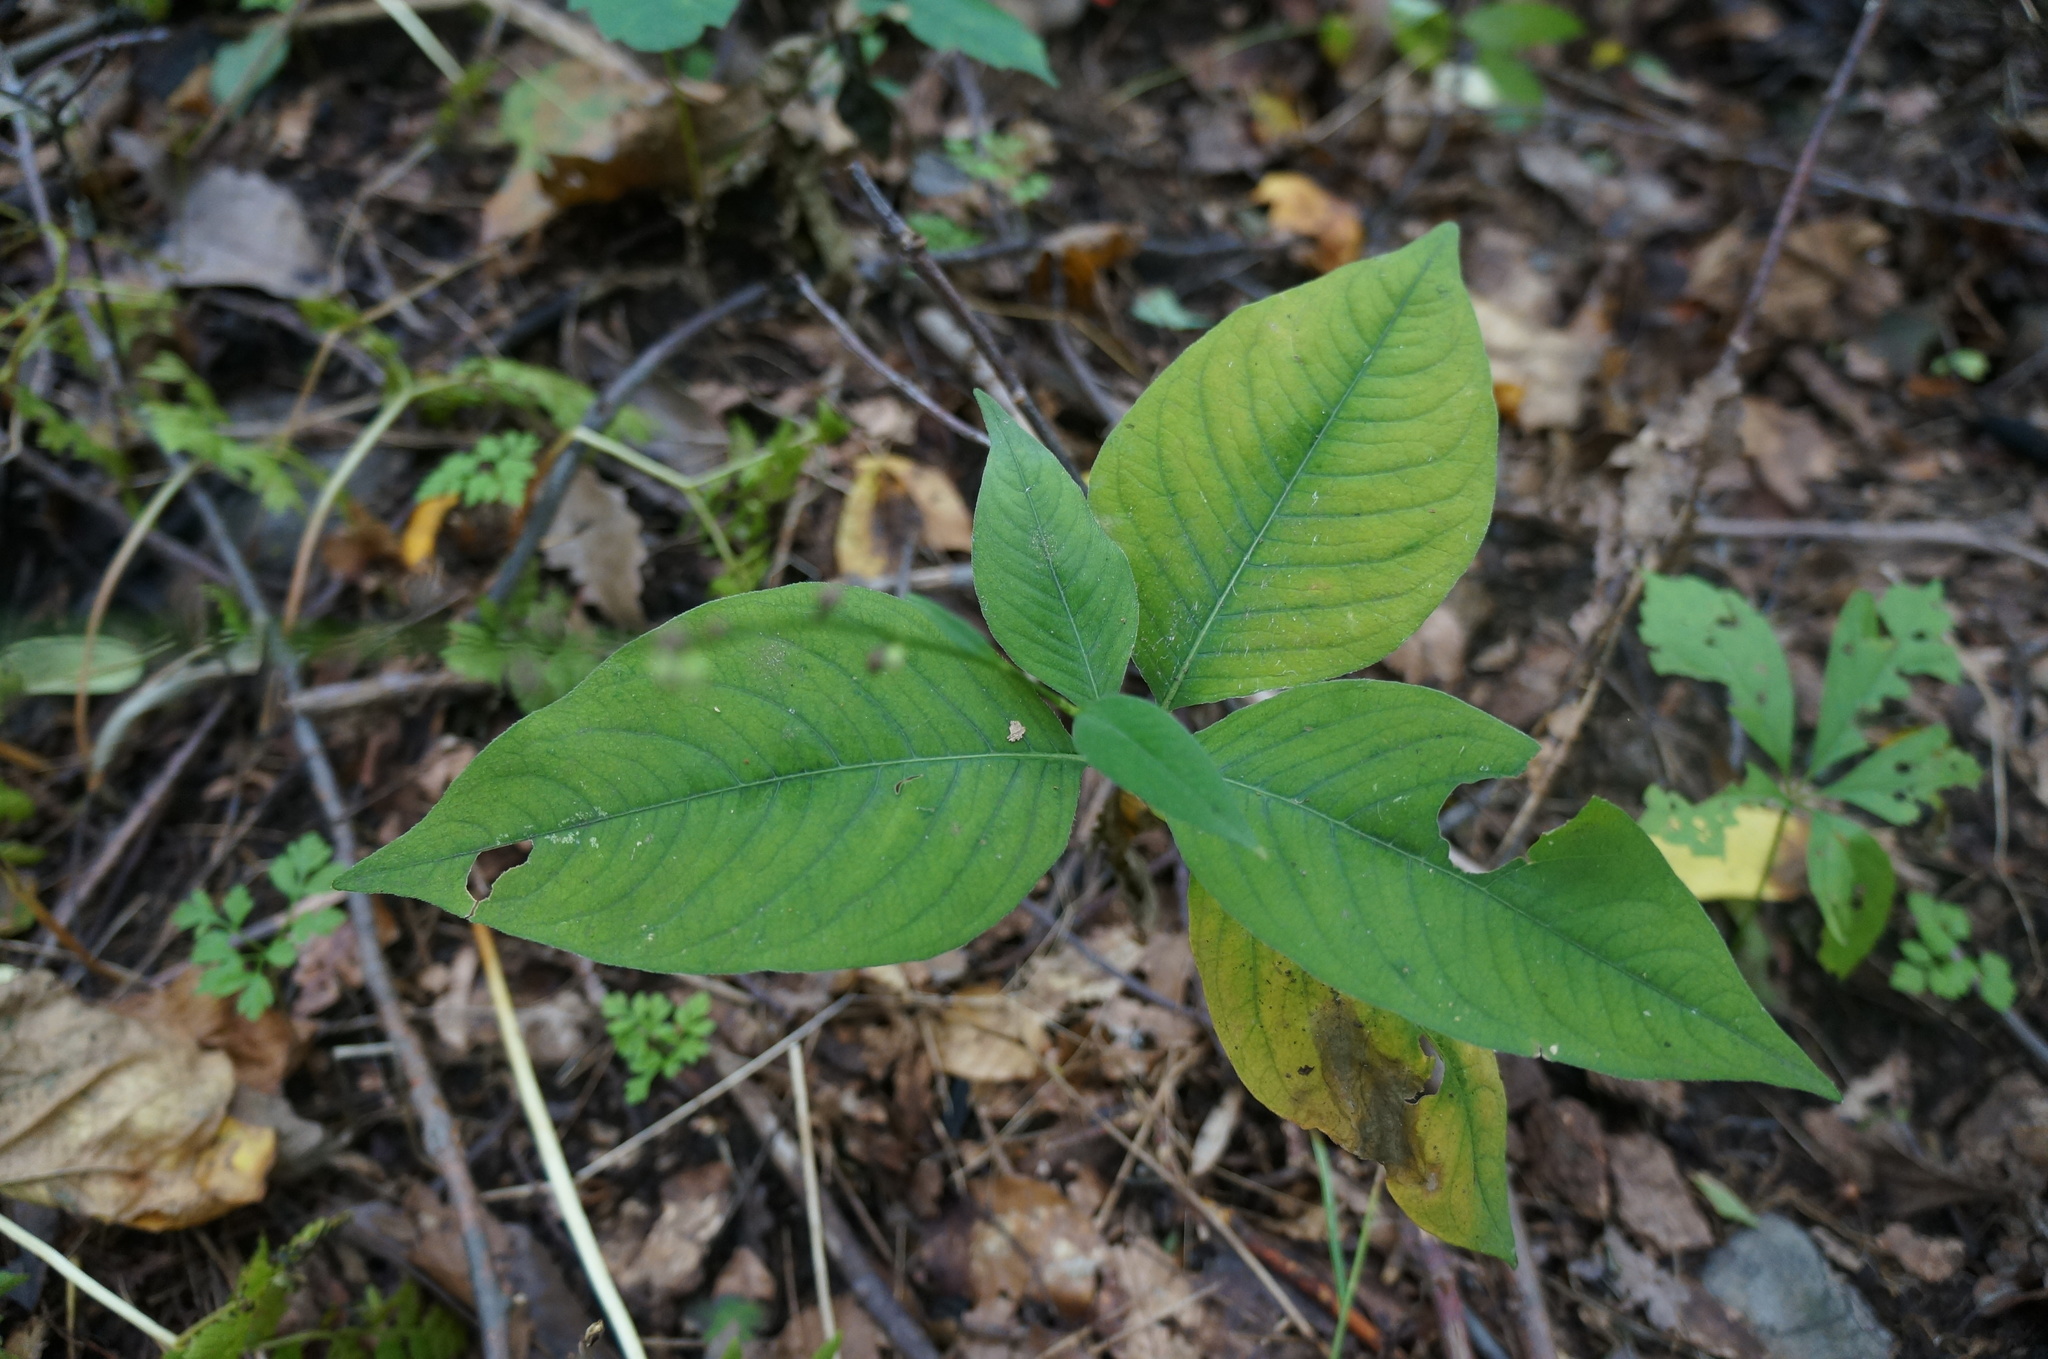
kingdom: Plantae
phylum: Tracheophyta
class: Magnoliopsida
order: Caryophyllales
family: Polygonaceae
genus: Persicaria
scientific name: Persicaria virginiana
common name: Jumpseed
